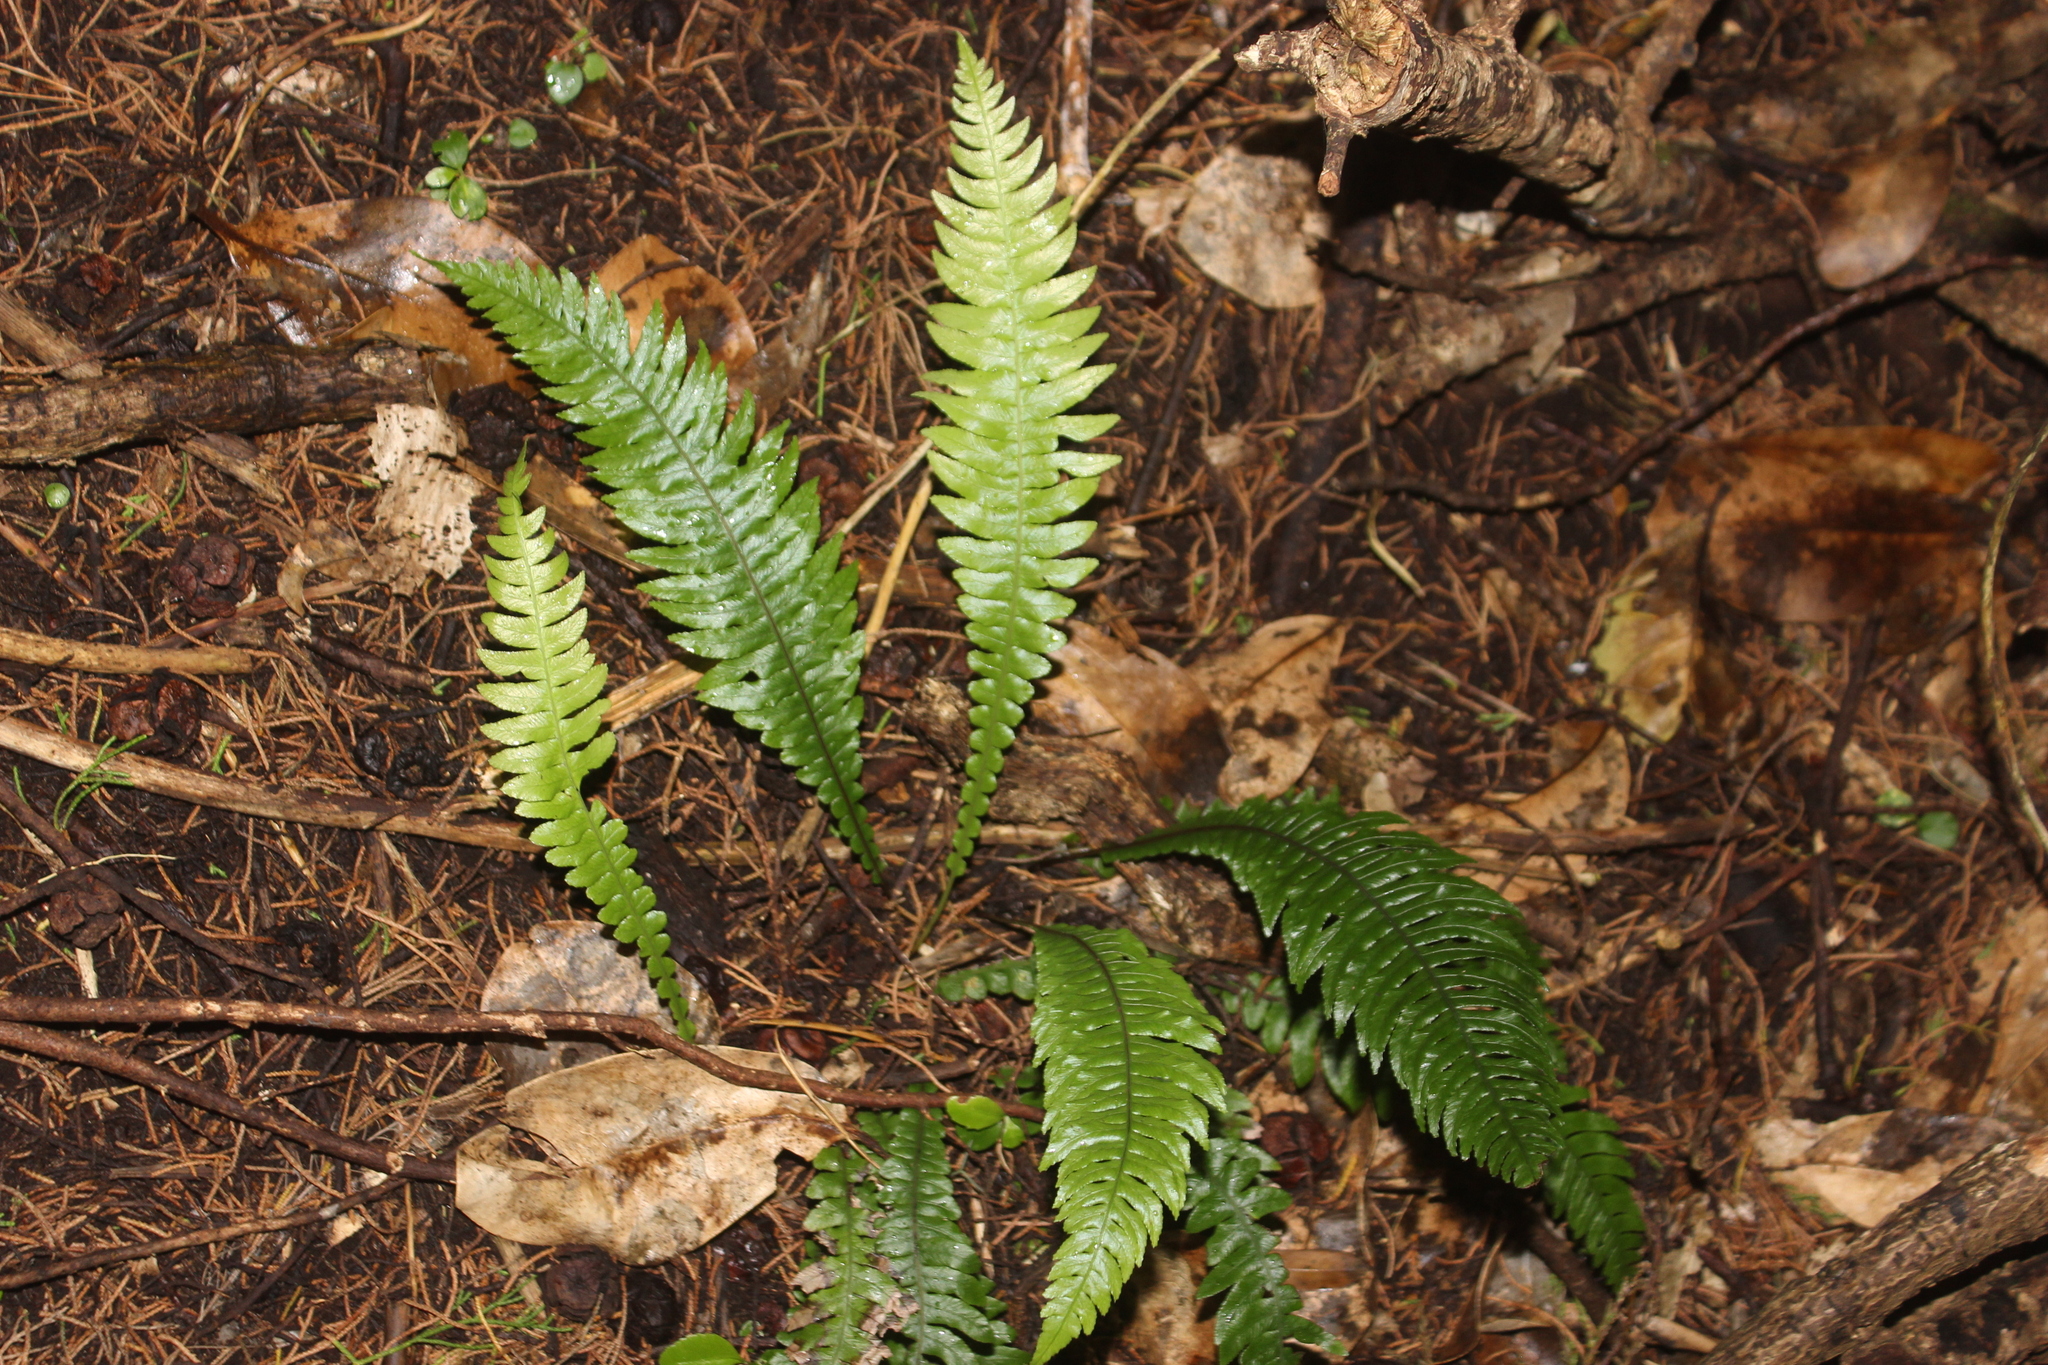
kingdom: Plantae
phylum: Tracheophyta
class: Polypodiopsida
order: Polypodiales
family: Blechnaceae
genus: Austroblechnum
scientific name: Austroblechnum lanceolatum
